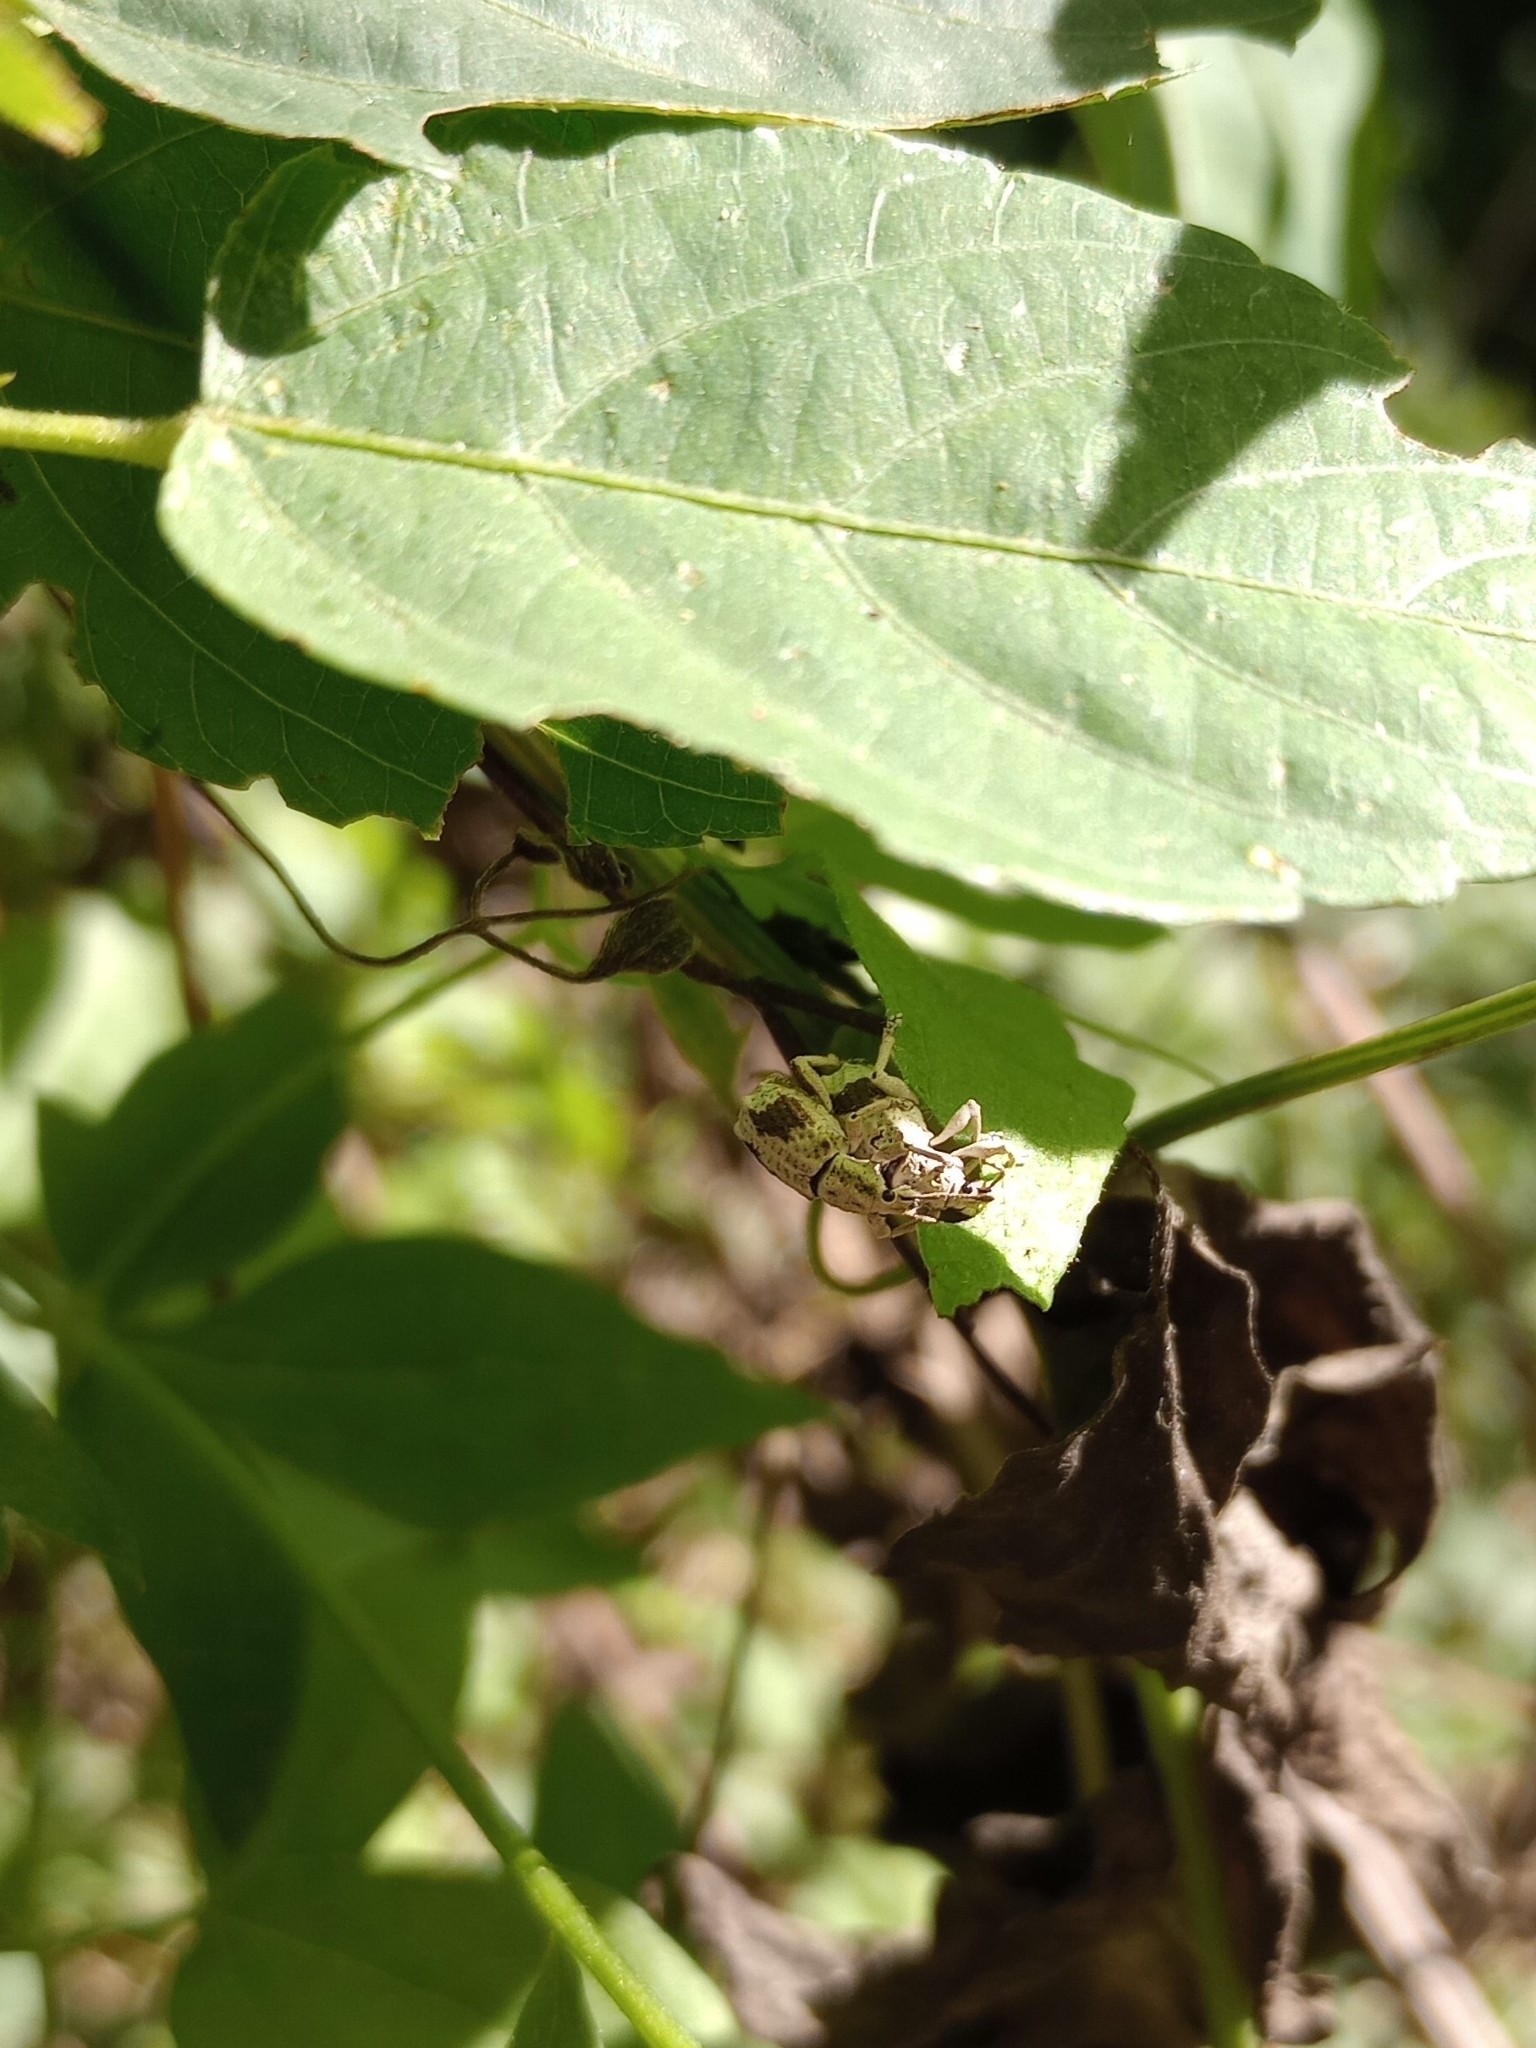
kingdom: Animalia
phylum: Arthropoda
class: Insecta
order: Coleoptera
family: Curculionidae
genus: Compsus
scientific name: Compsus
